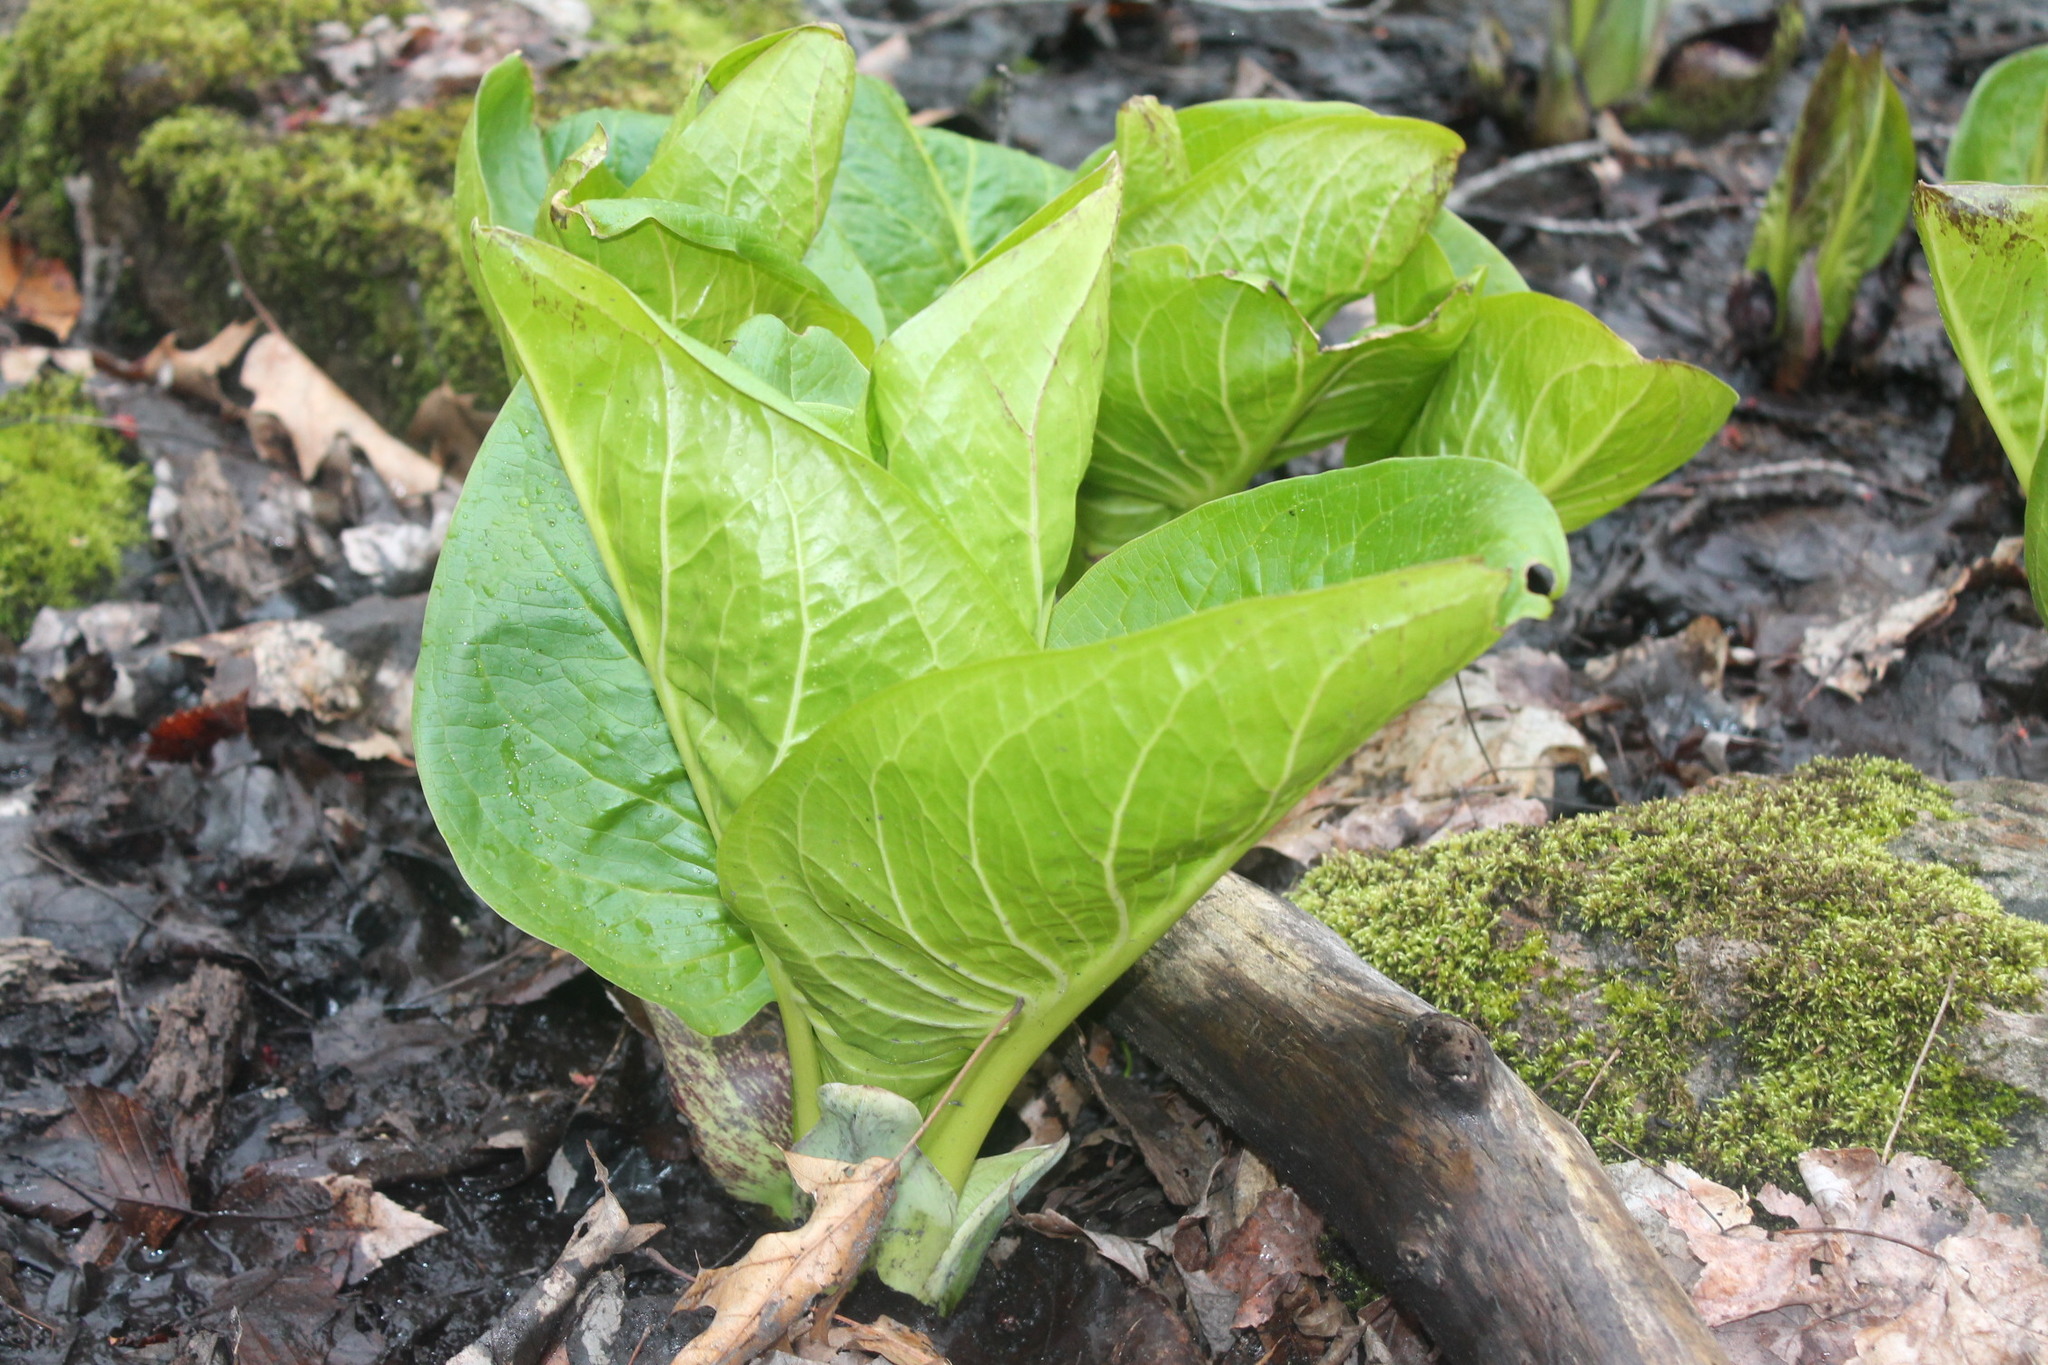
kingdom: Plantae
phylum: Tracheophyta
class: Liliopsida
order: Alismatales
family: Araceae
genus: Symplocarpus
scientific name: Symplocarpus foetidus
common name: Eastern skunk cabbage
